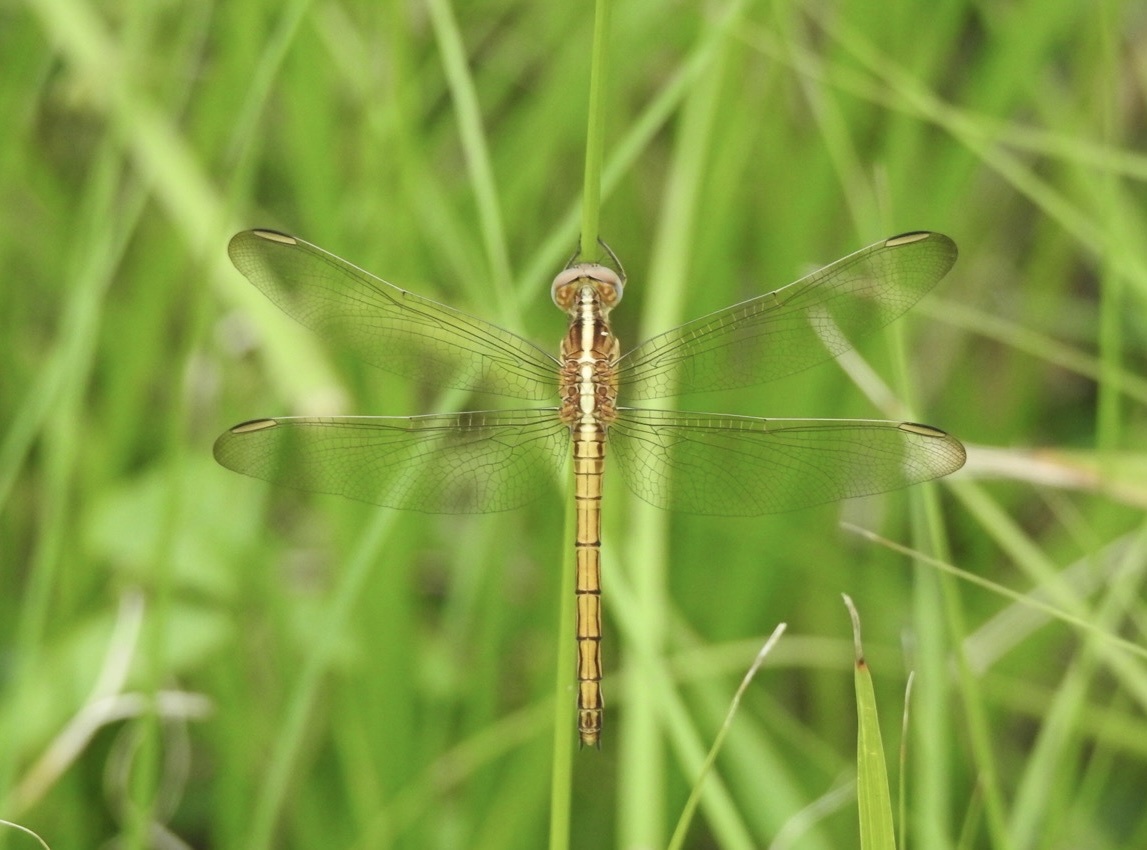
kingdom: Animalia
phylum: Arthropoda
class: Insecta
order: Odonata
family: Libellulidae
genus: Nesciothemis
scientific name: Nesciothemis farinosa
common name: Eastern blacktail
